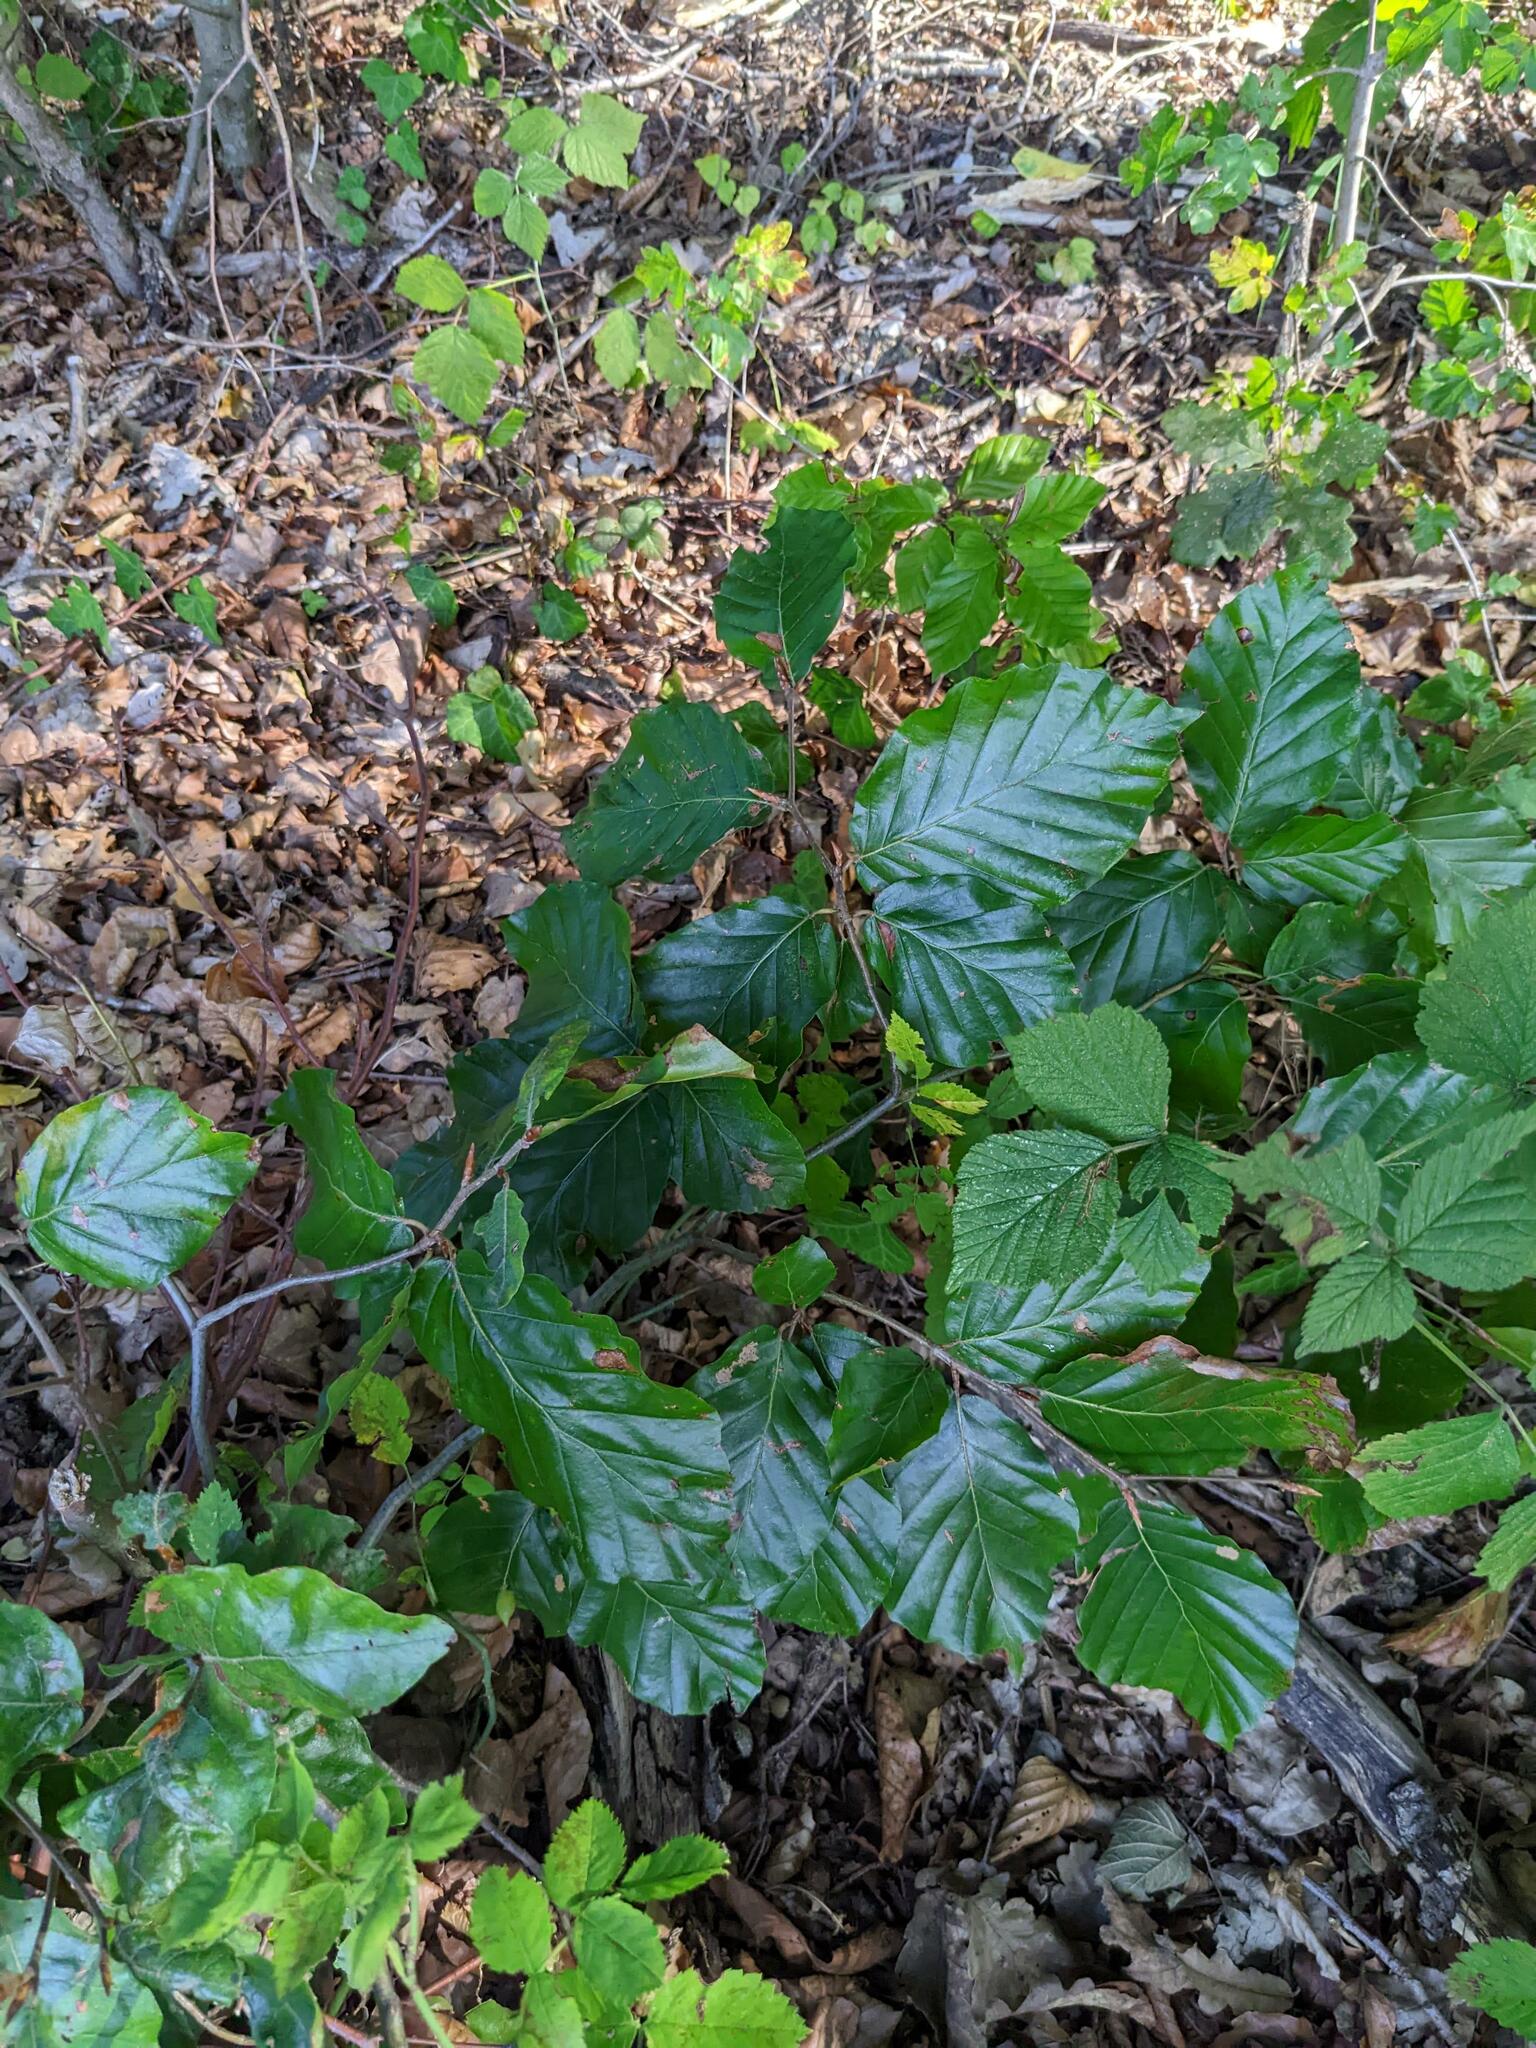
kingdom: Plantae
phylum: Tracheophyta
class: Magnoliopsida
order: Fagales
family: Fagaceae
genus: Fagus
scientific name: Fagus sylvatica
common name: Beech
